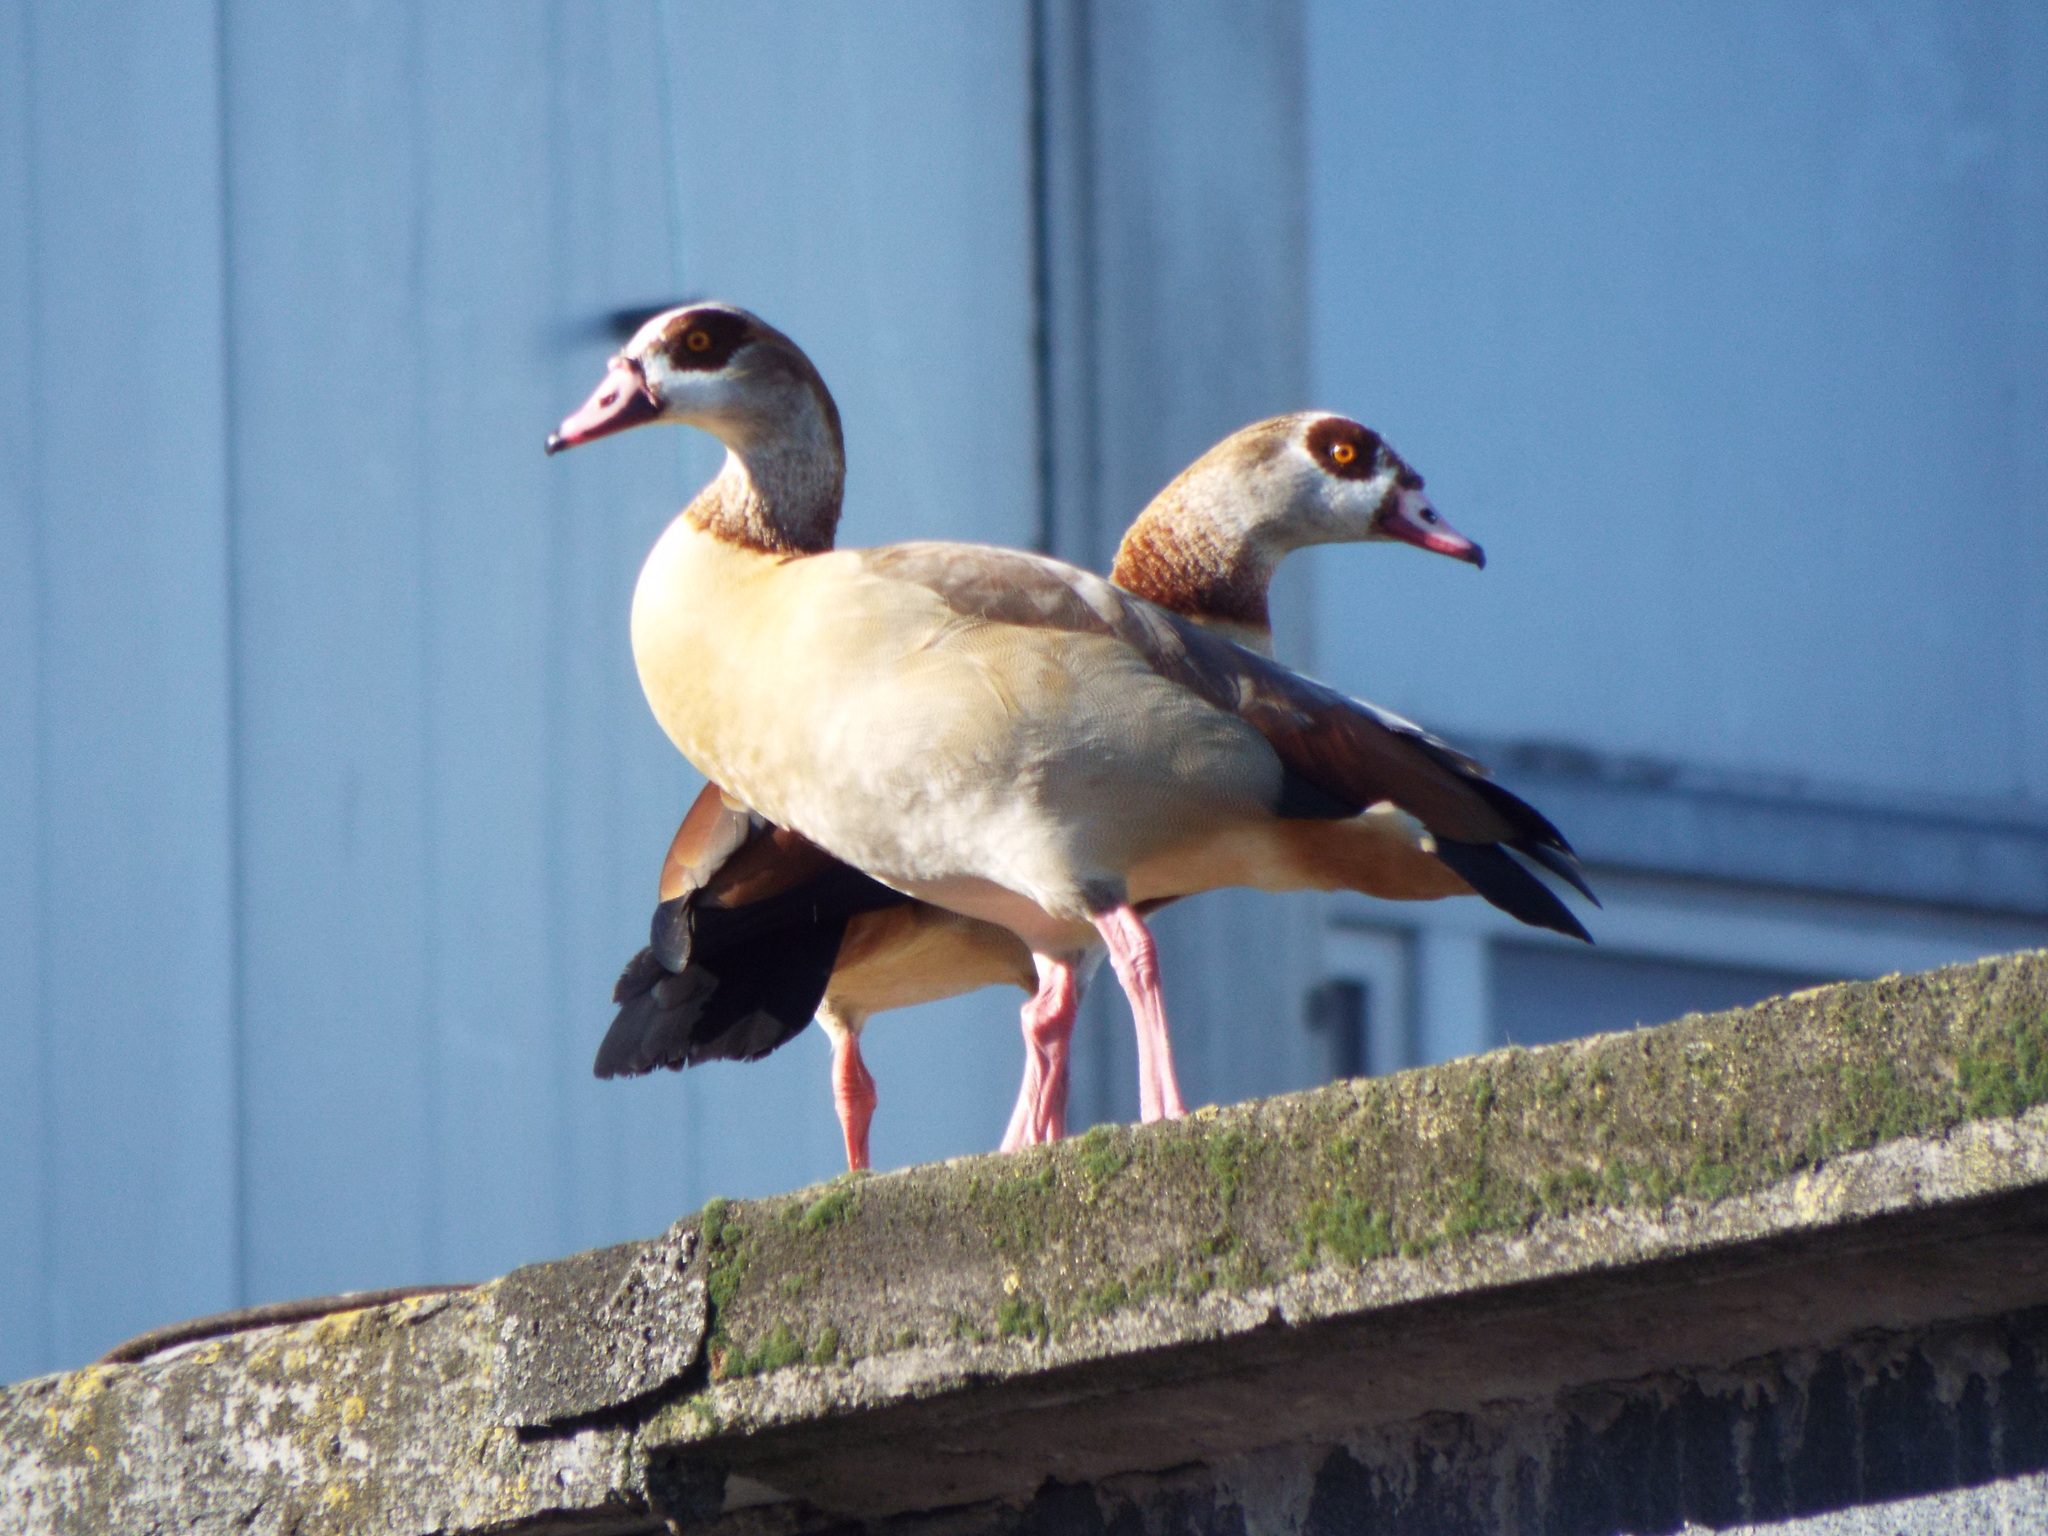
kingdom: Animalia
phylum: Chordata
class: Aves
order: Anseriformes
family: Anatidae
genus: Alopochen
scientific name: Alopochen aegyptiaca
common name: Egyptian goose
